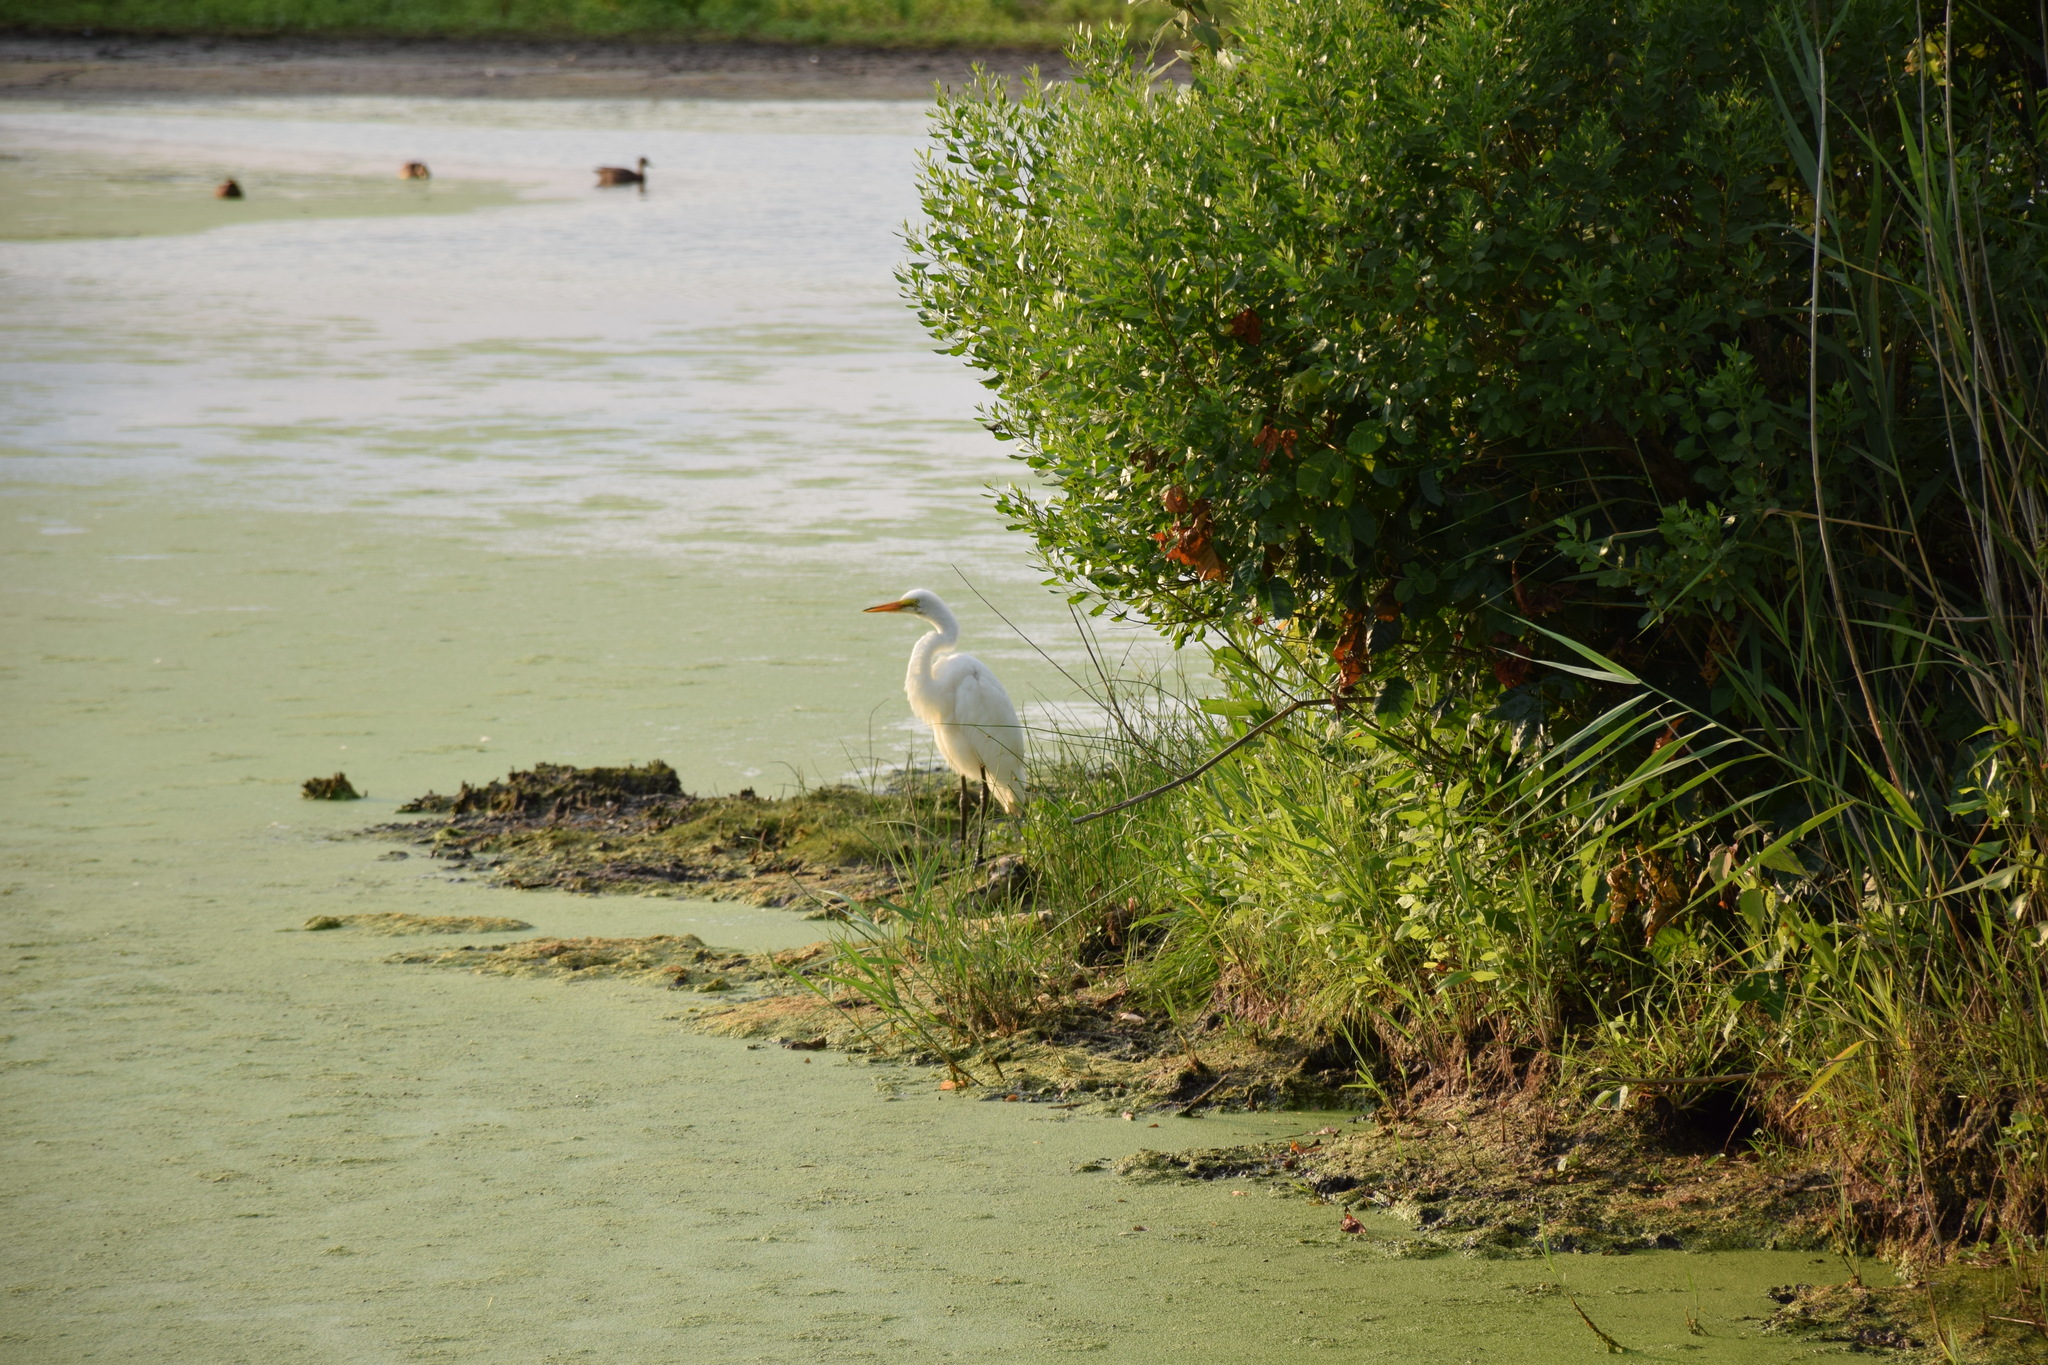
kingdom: Animalia
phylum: Chordata
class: Aves
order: Pelecaniformes
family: Ardeidae
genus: Ardea
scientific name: Ardea alba
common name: Great egret
